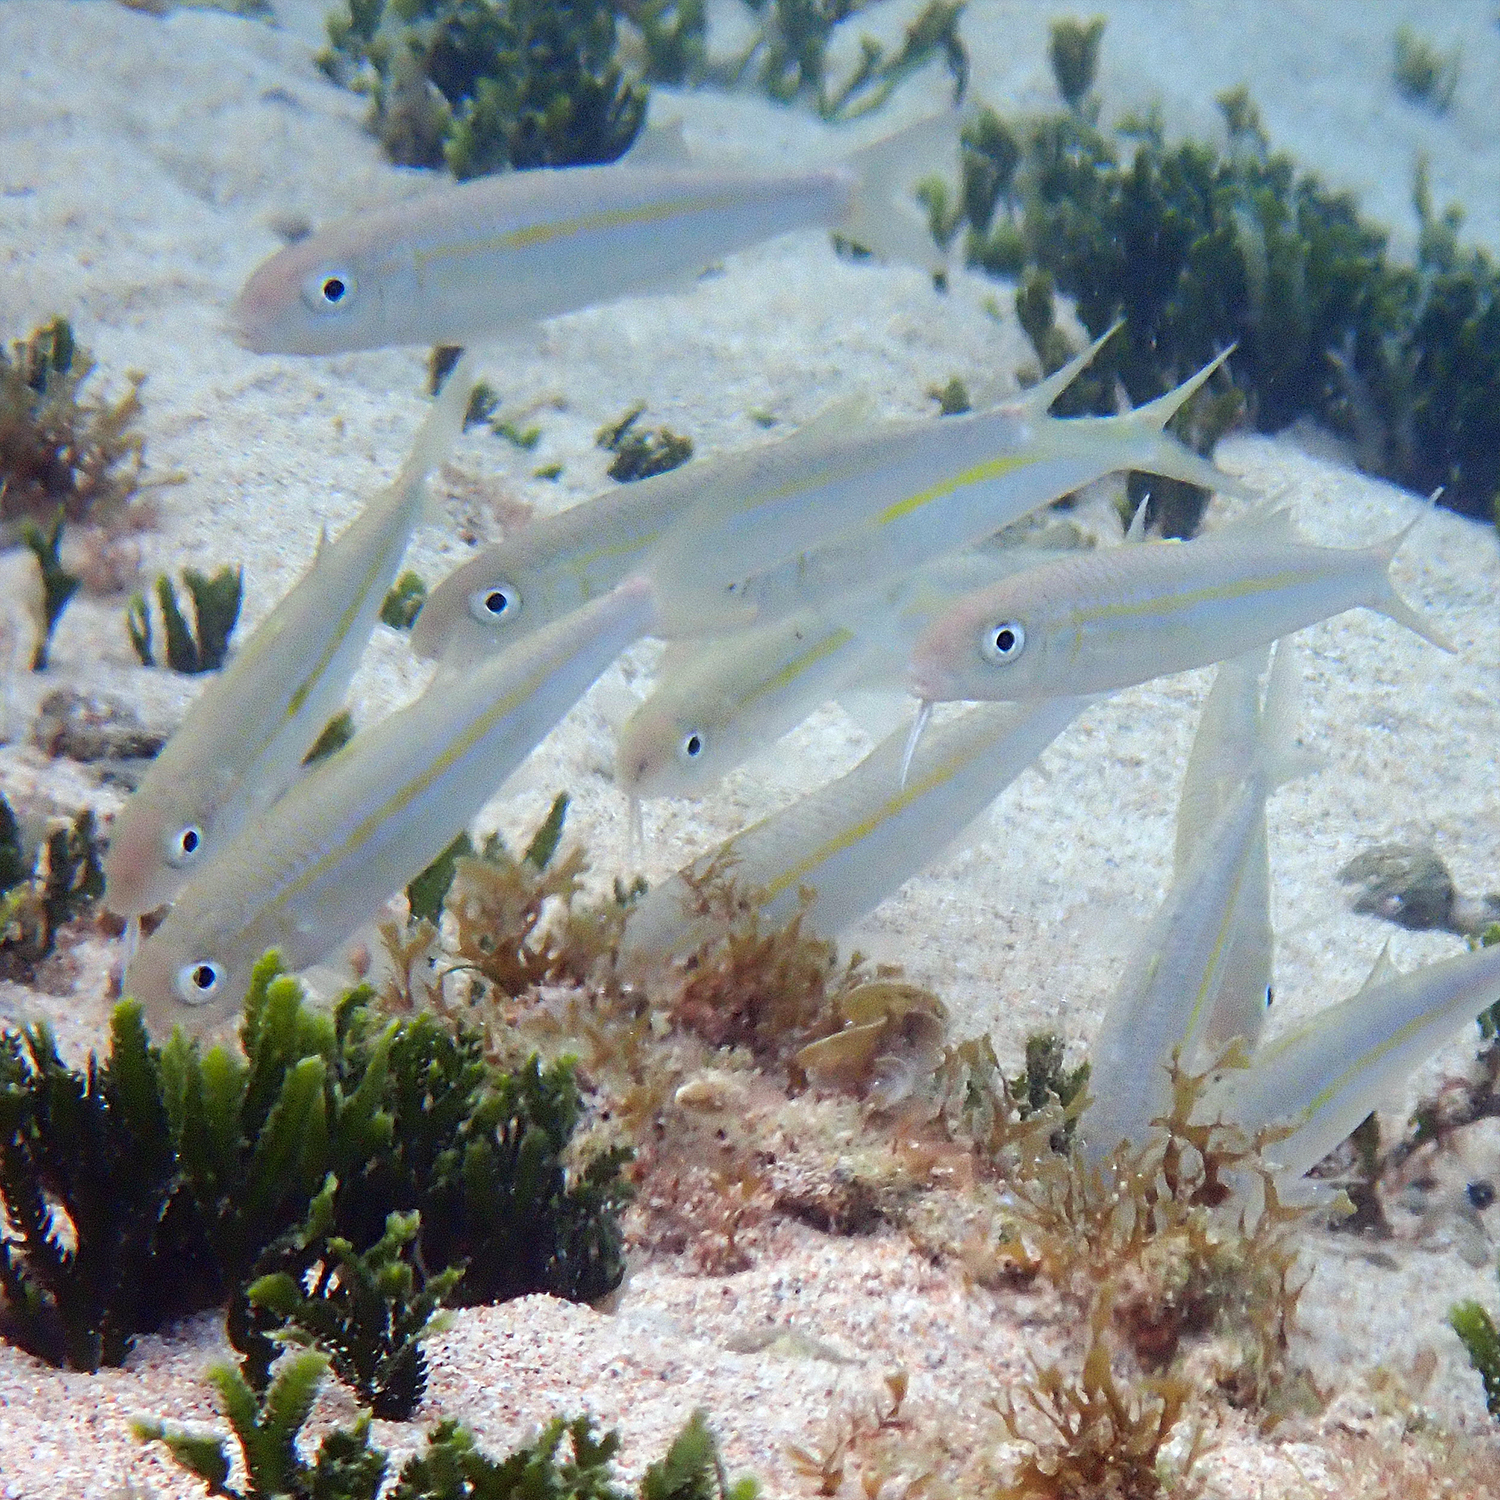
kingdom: Animalia
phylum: Chordata
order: Perciformes
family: Mullidae
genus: Mulloidichthys
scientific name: Mulloidichthys flavolineatus
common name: Yellowstripe goatfish
